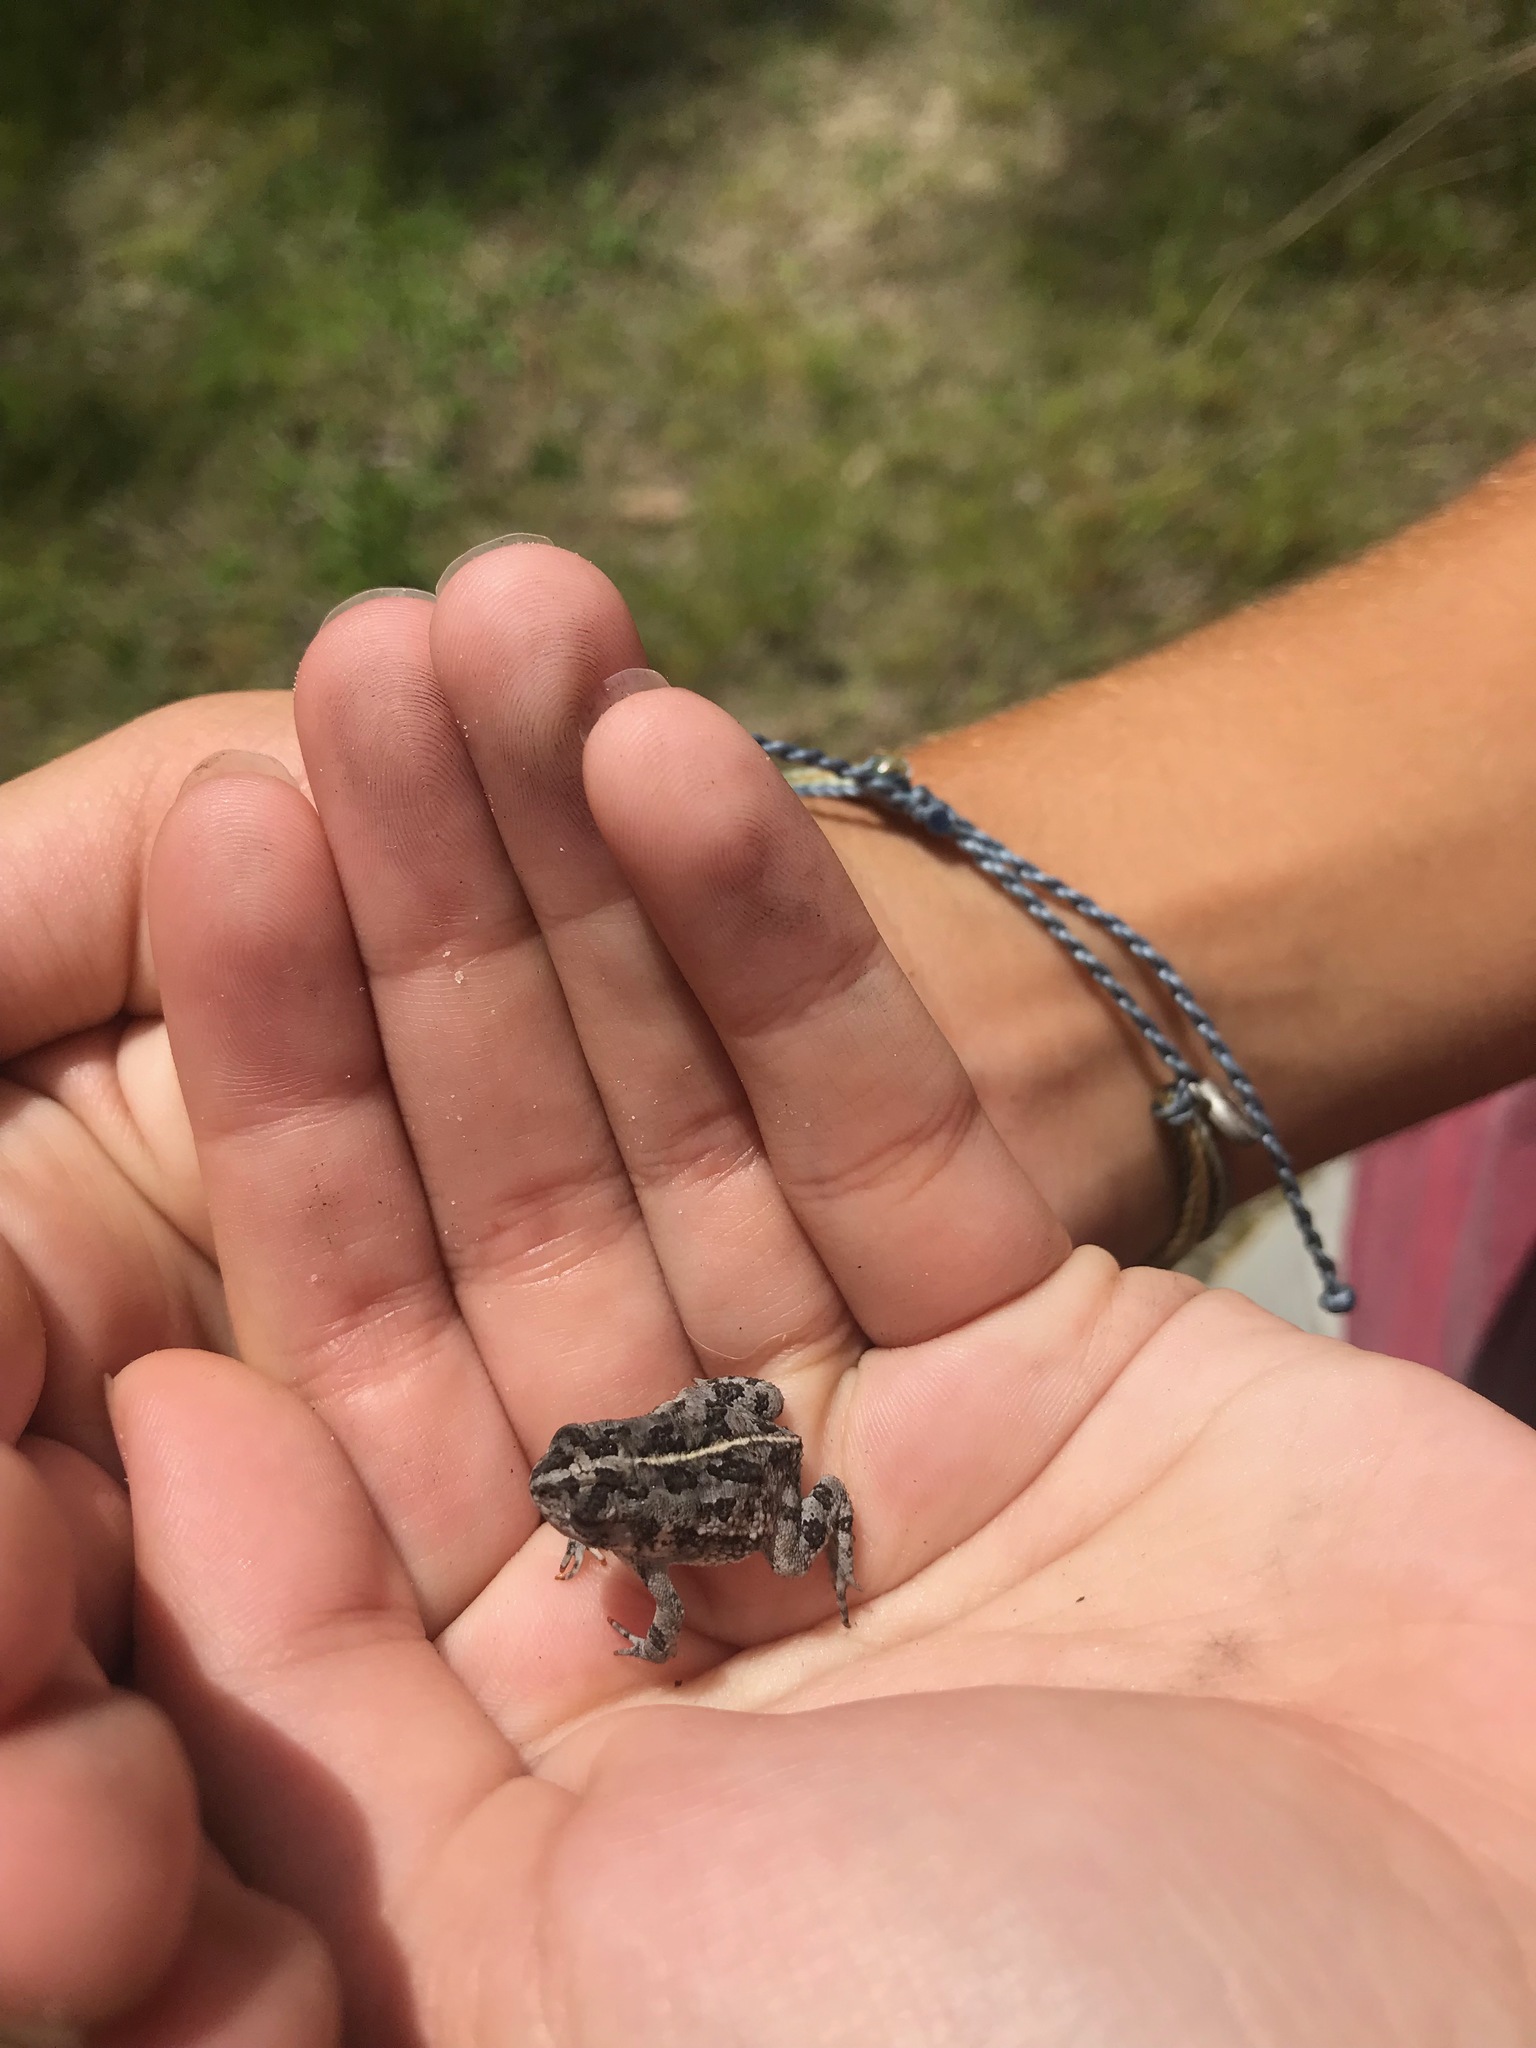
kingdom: Animalia
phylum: Chordata
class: Amphibia
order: Anura
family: Bufonidae
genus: Anaxyrus
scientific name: Anaxyrus quercicus
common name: Oak toad
